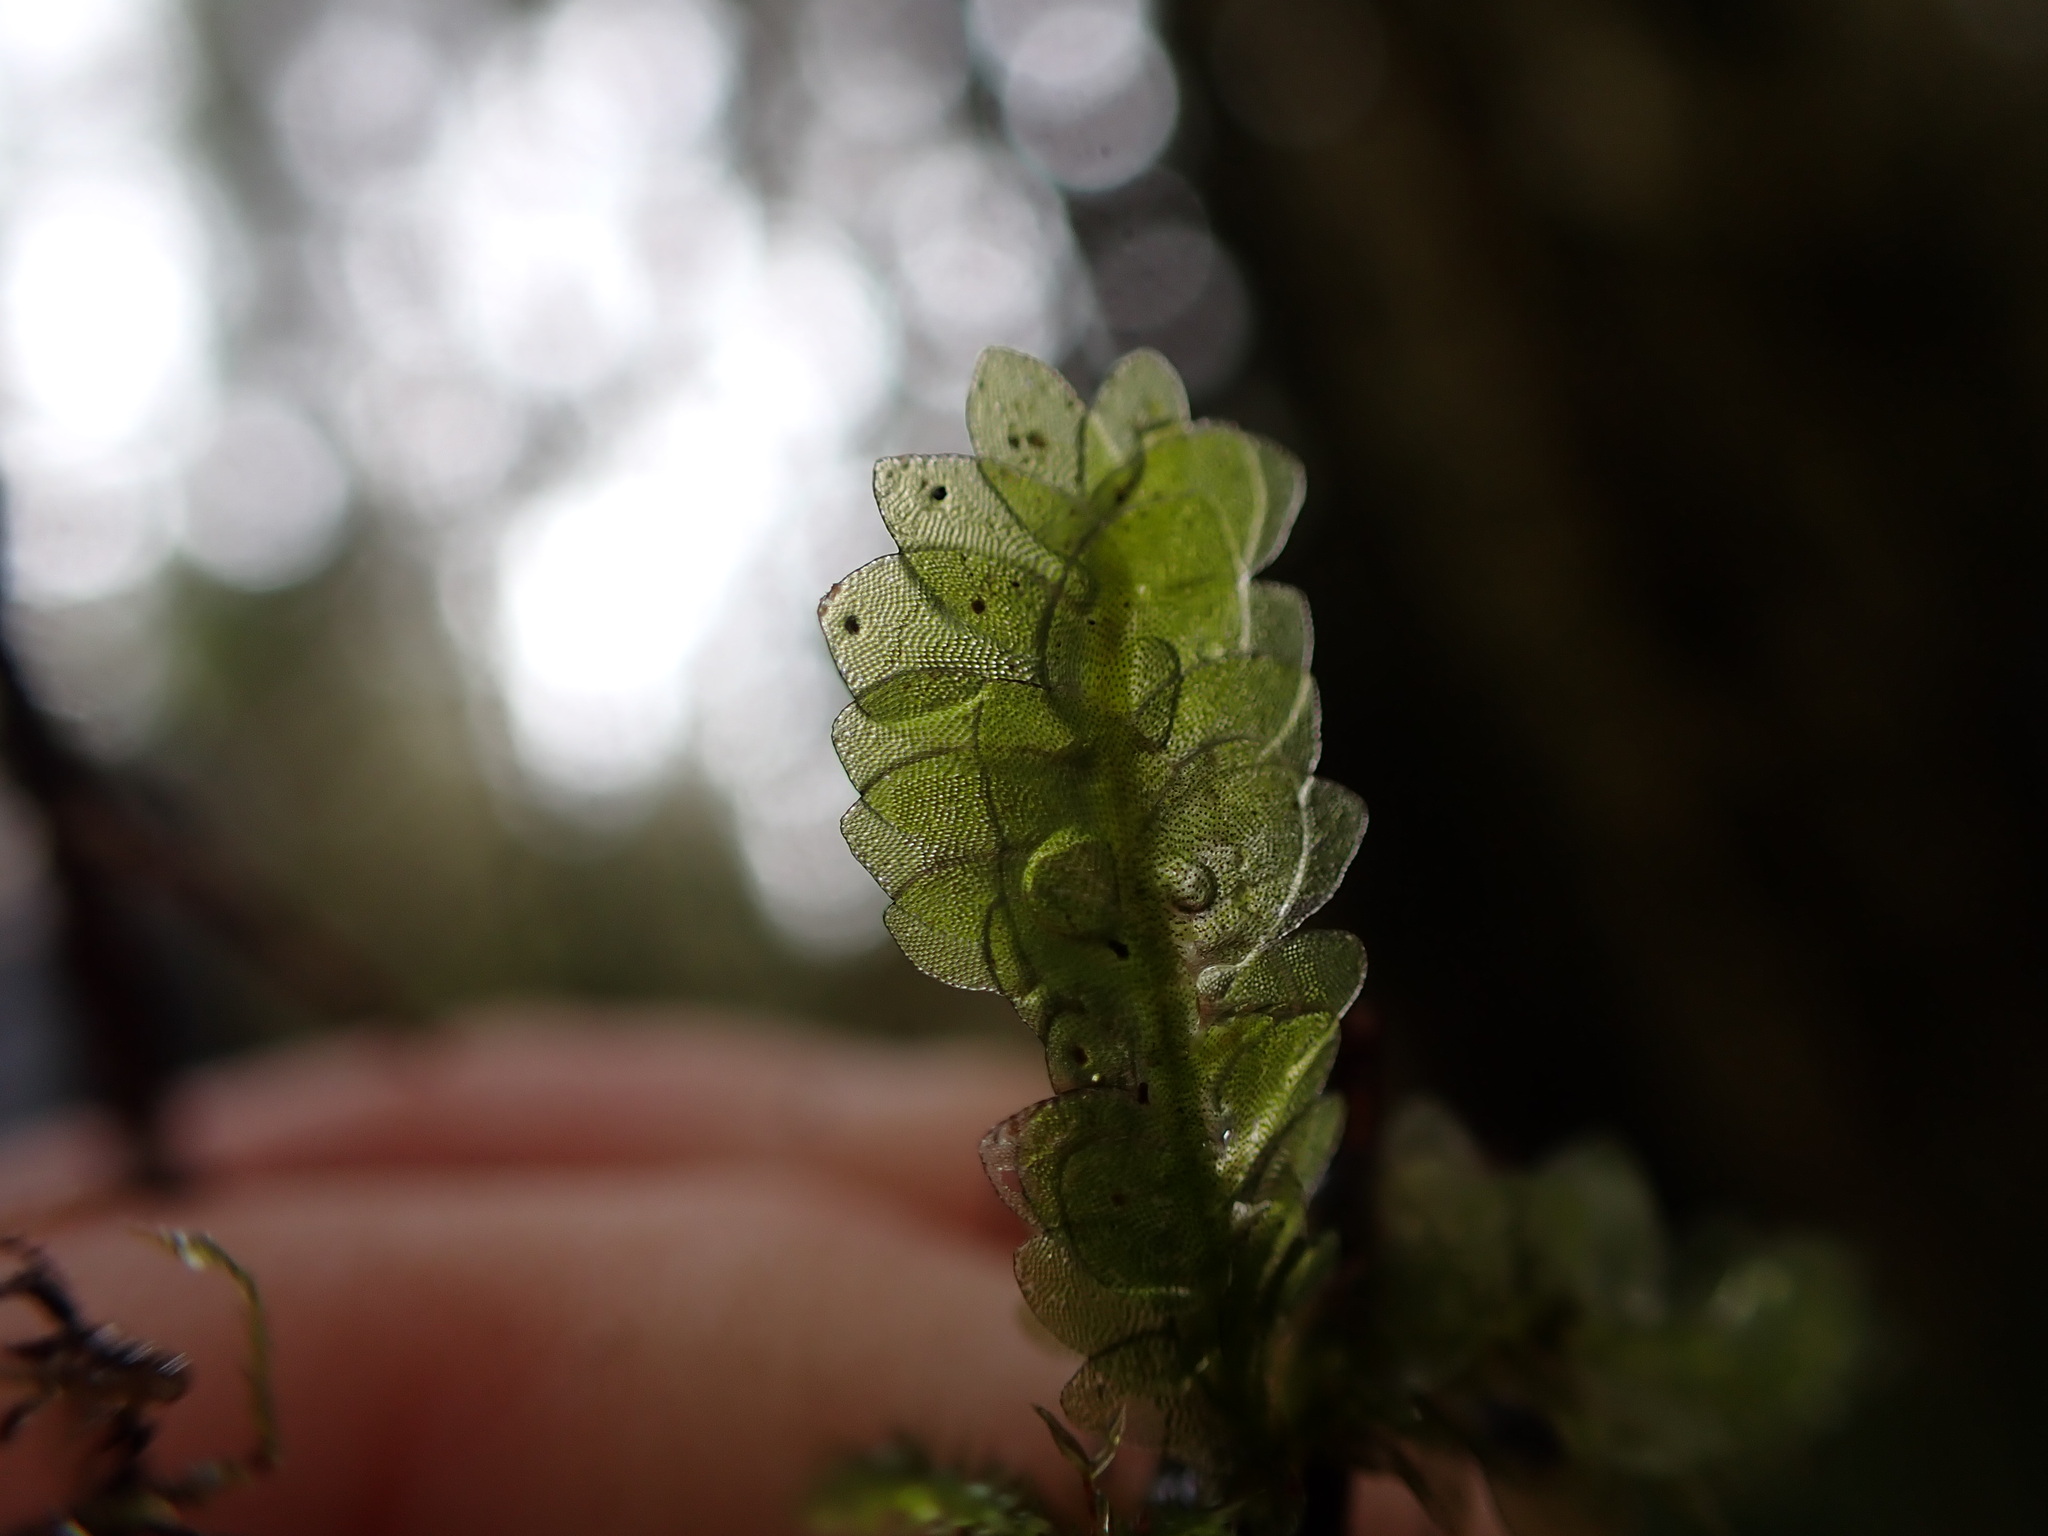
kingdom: Plantae
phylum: Bryophyta
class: Bryopsida
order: Hookeriales
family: Hookeriaceae
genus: Hookeria
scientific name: Hookeria lucens
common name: Shining hookeria
